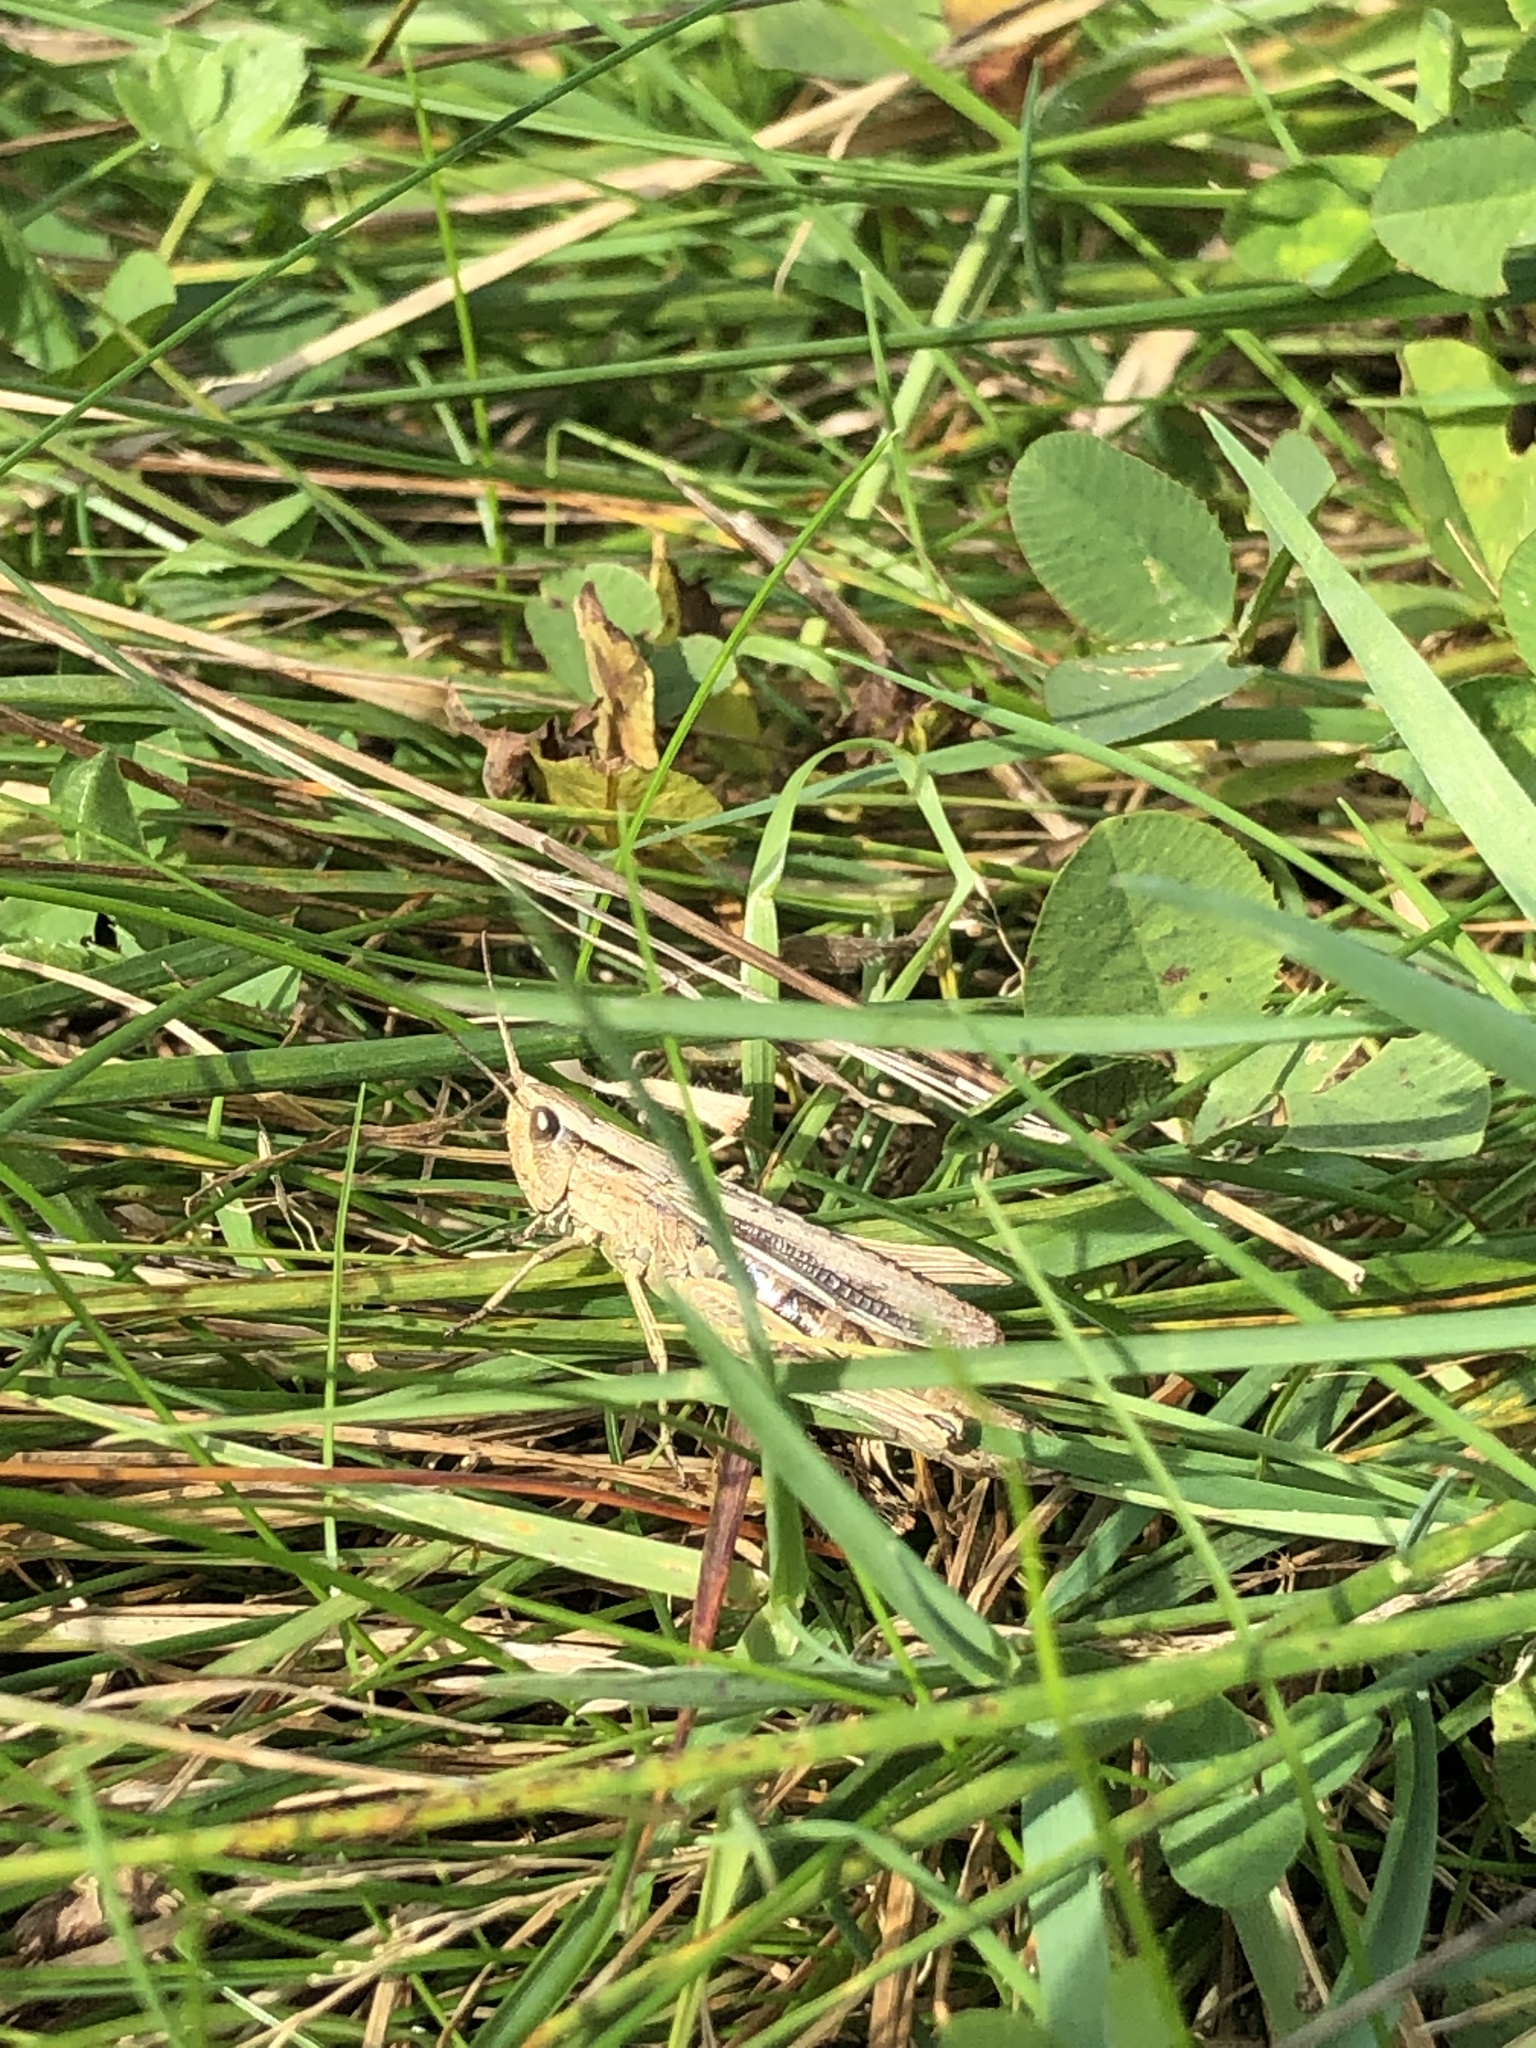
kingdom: Animalia
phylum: Arthropoda
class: Insecta
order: Orthoptera
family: Acrididae
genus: Chorthippus
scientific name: Chorthippus albomarginatus
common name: Lesser marsh grasshopper
